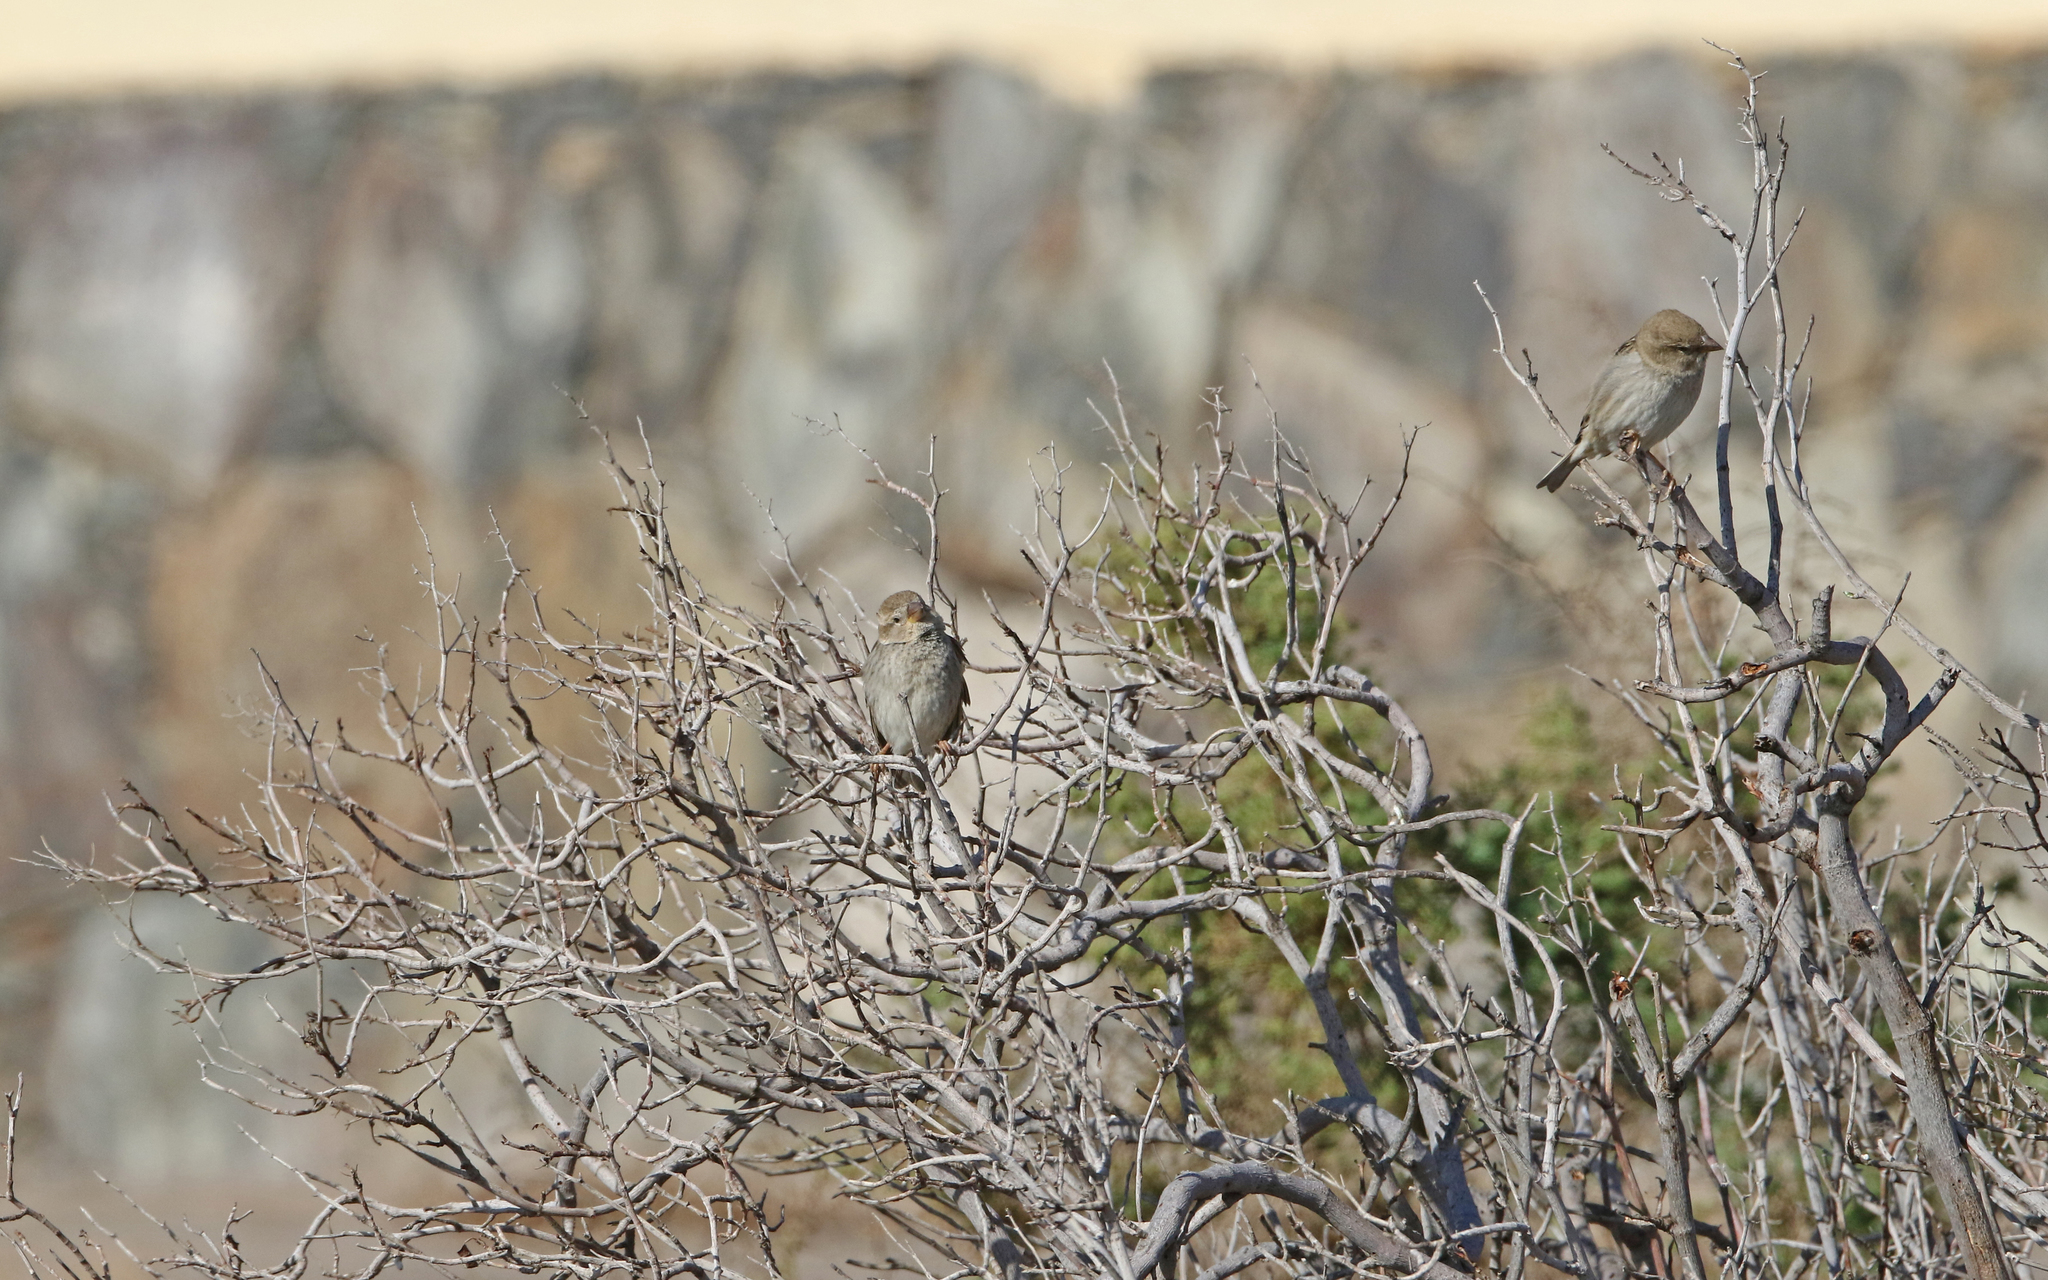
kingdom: Animalia
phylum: Chordata
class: Aves
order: Passeriformes
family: Passeridae
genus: Passer
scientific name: Passer hispaniolensis
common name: Spanish sparrow
